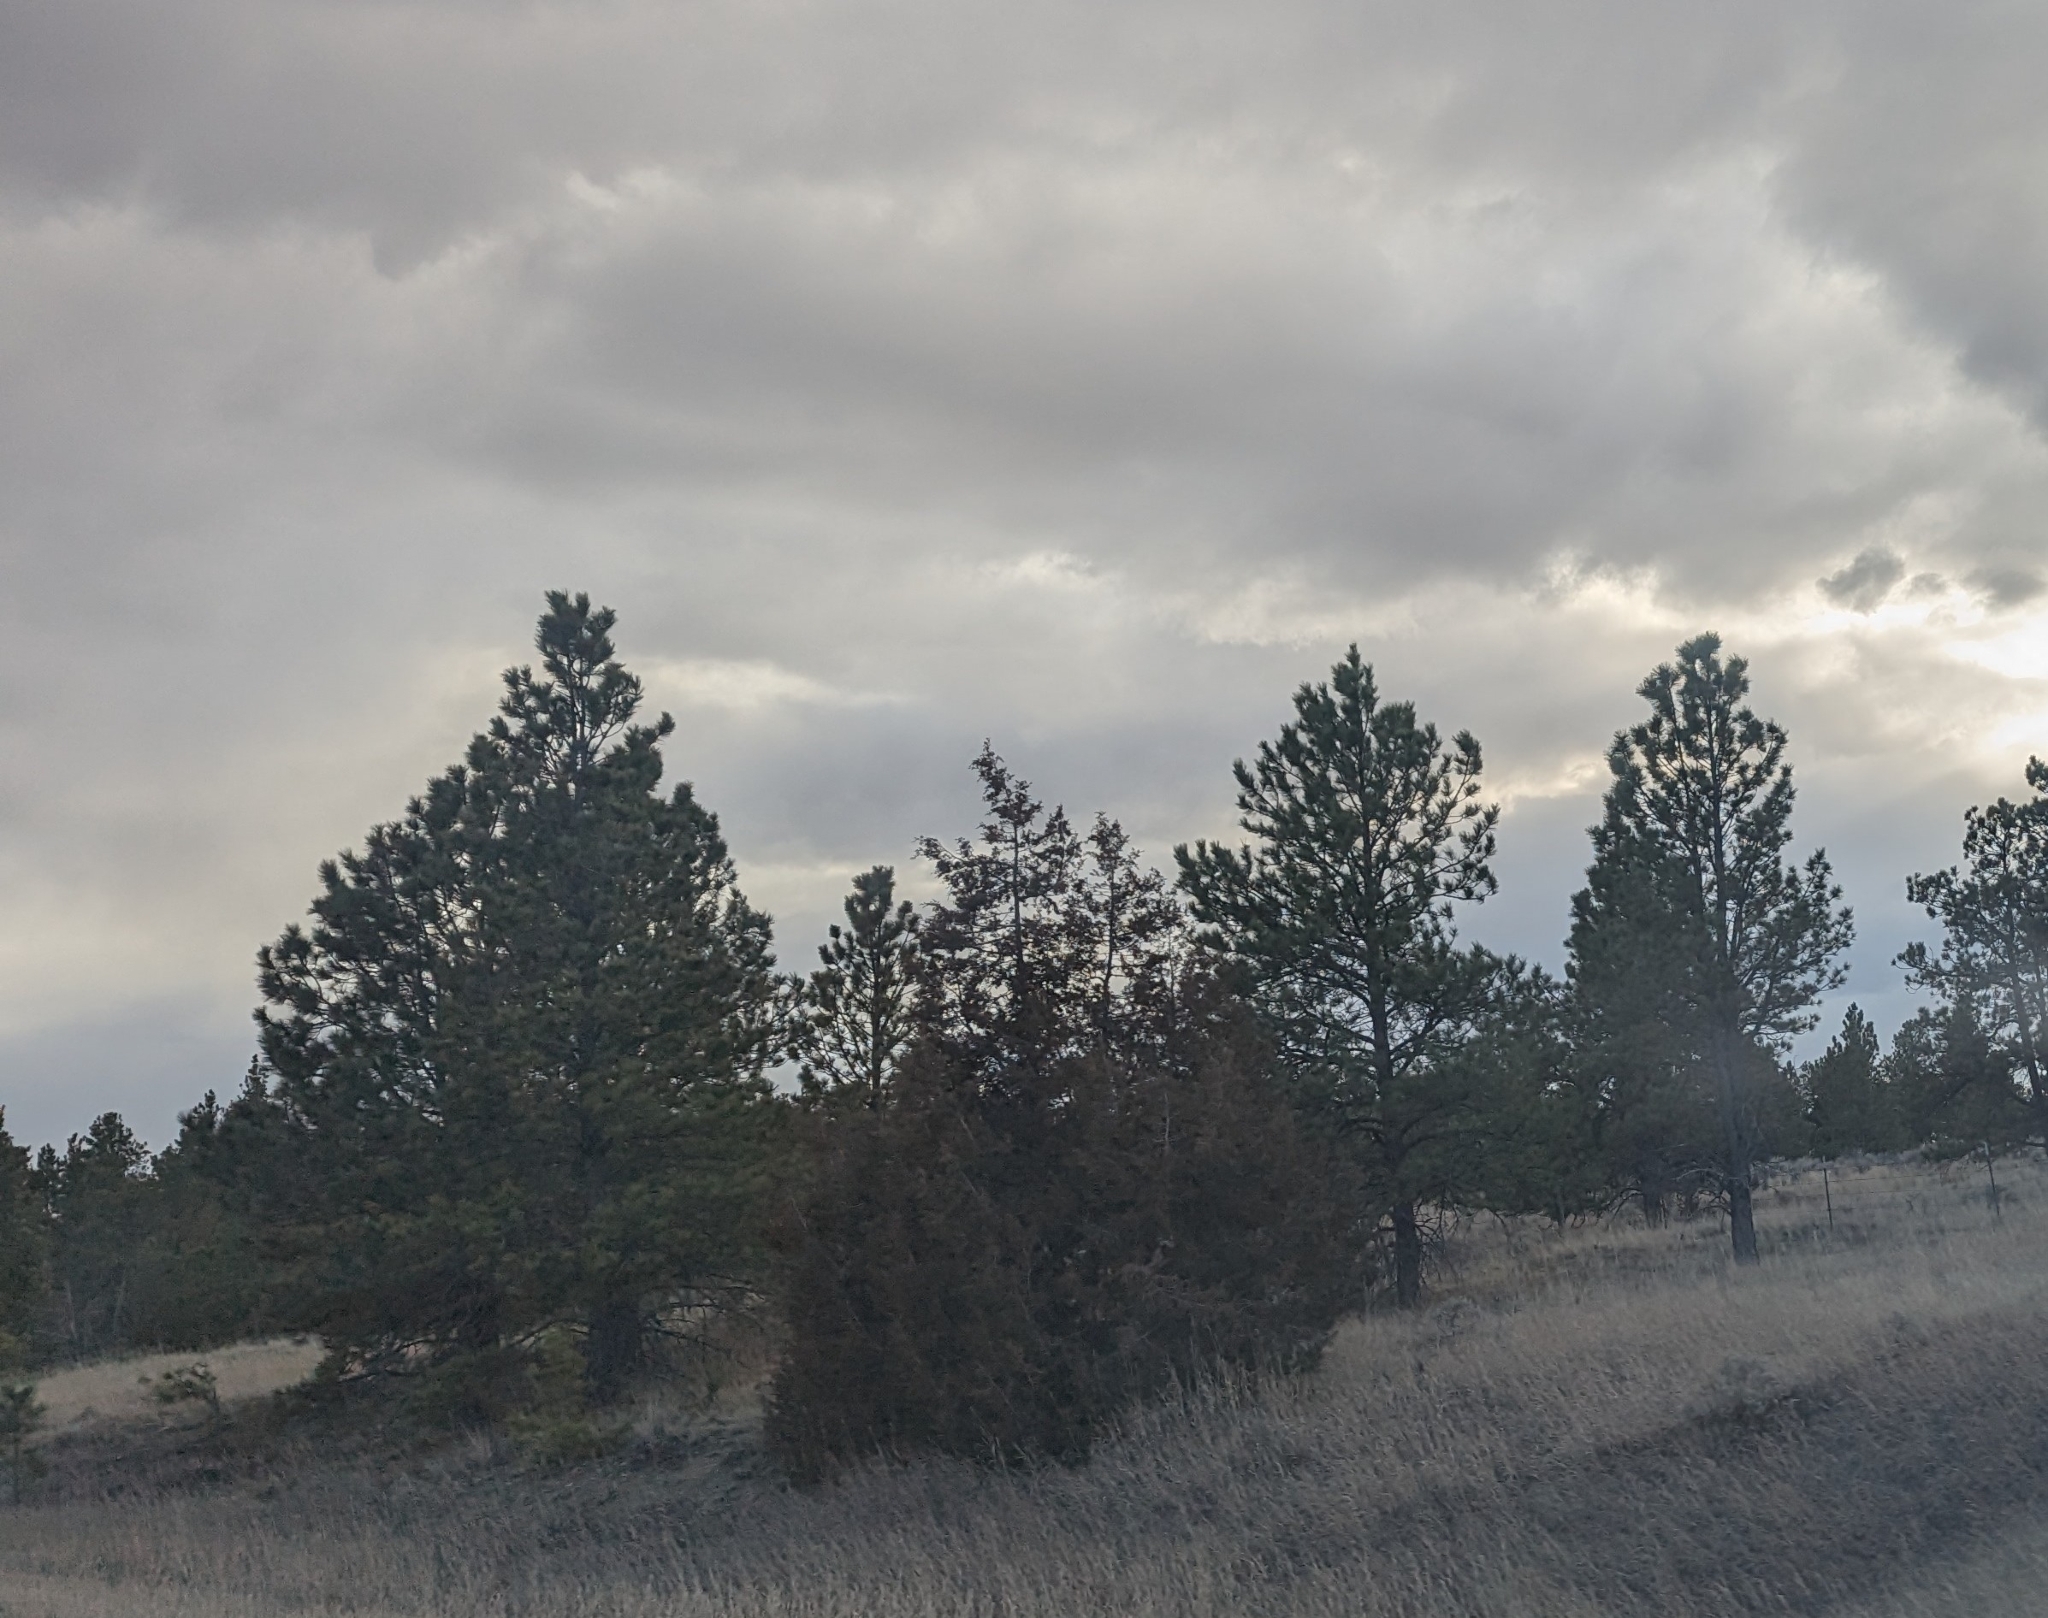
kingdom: Plantae
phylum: Tracheophyta
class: Pinopsida
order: Pinales
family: Pinaceae
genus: Pinus
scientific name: Pinus ponderosa
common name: Western yellow-pine
